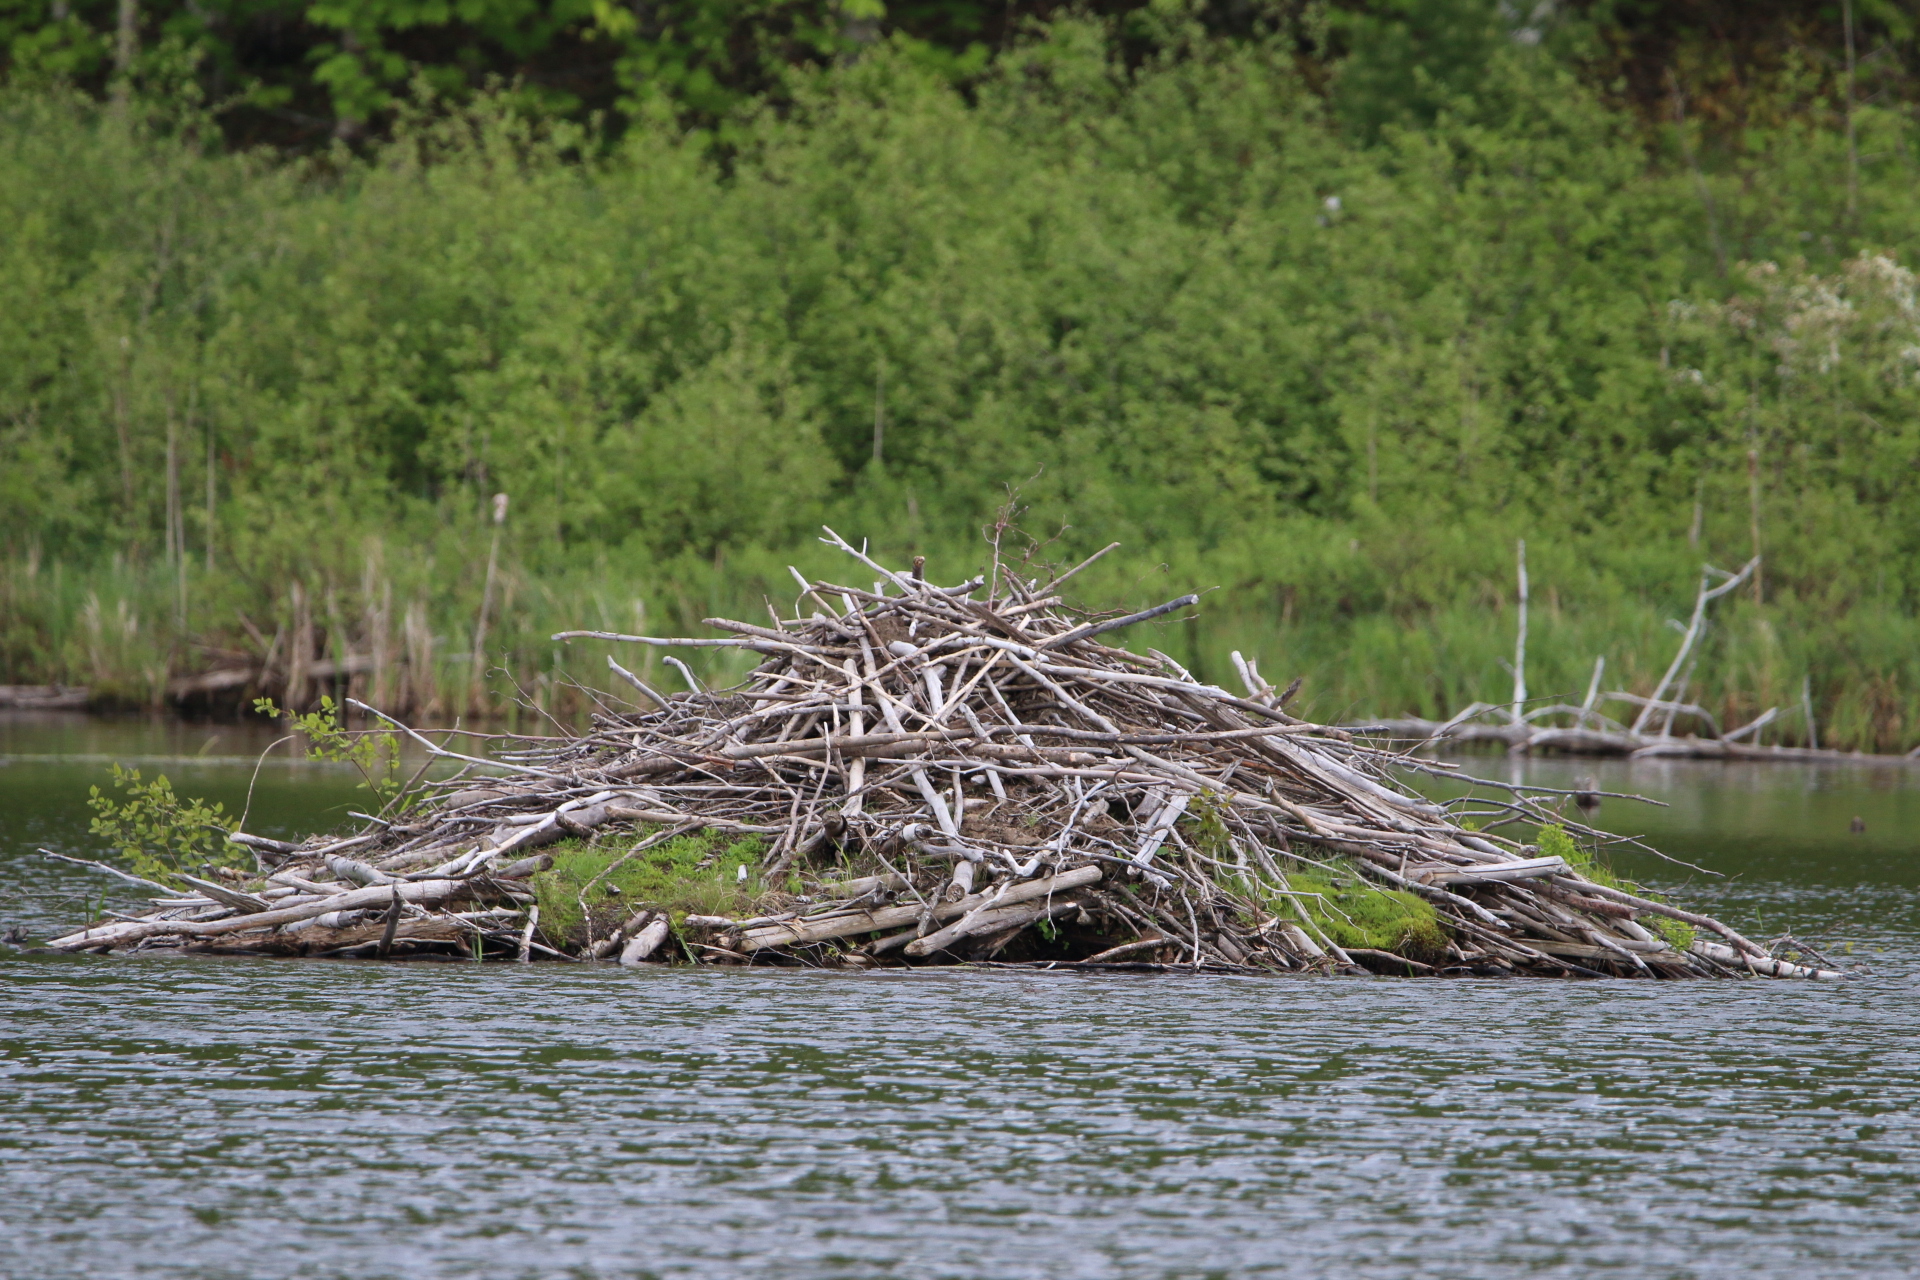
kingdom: Animalia
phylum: Chordata
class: Mammalia
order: Rodentia
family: Castoridae
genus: Castor
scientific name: Castor canadensis
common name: American beaver
